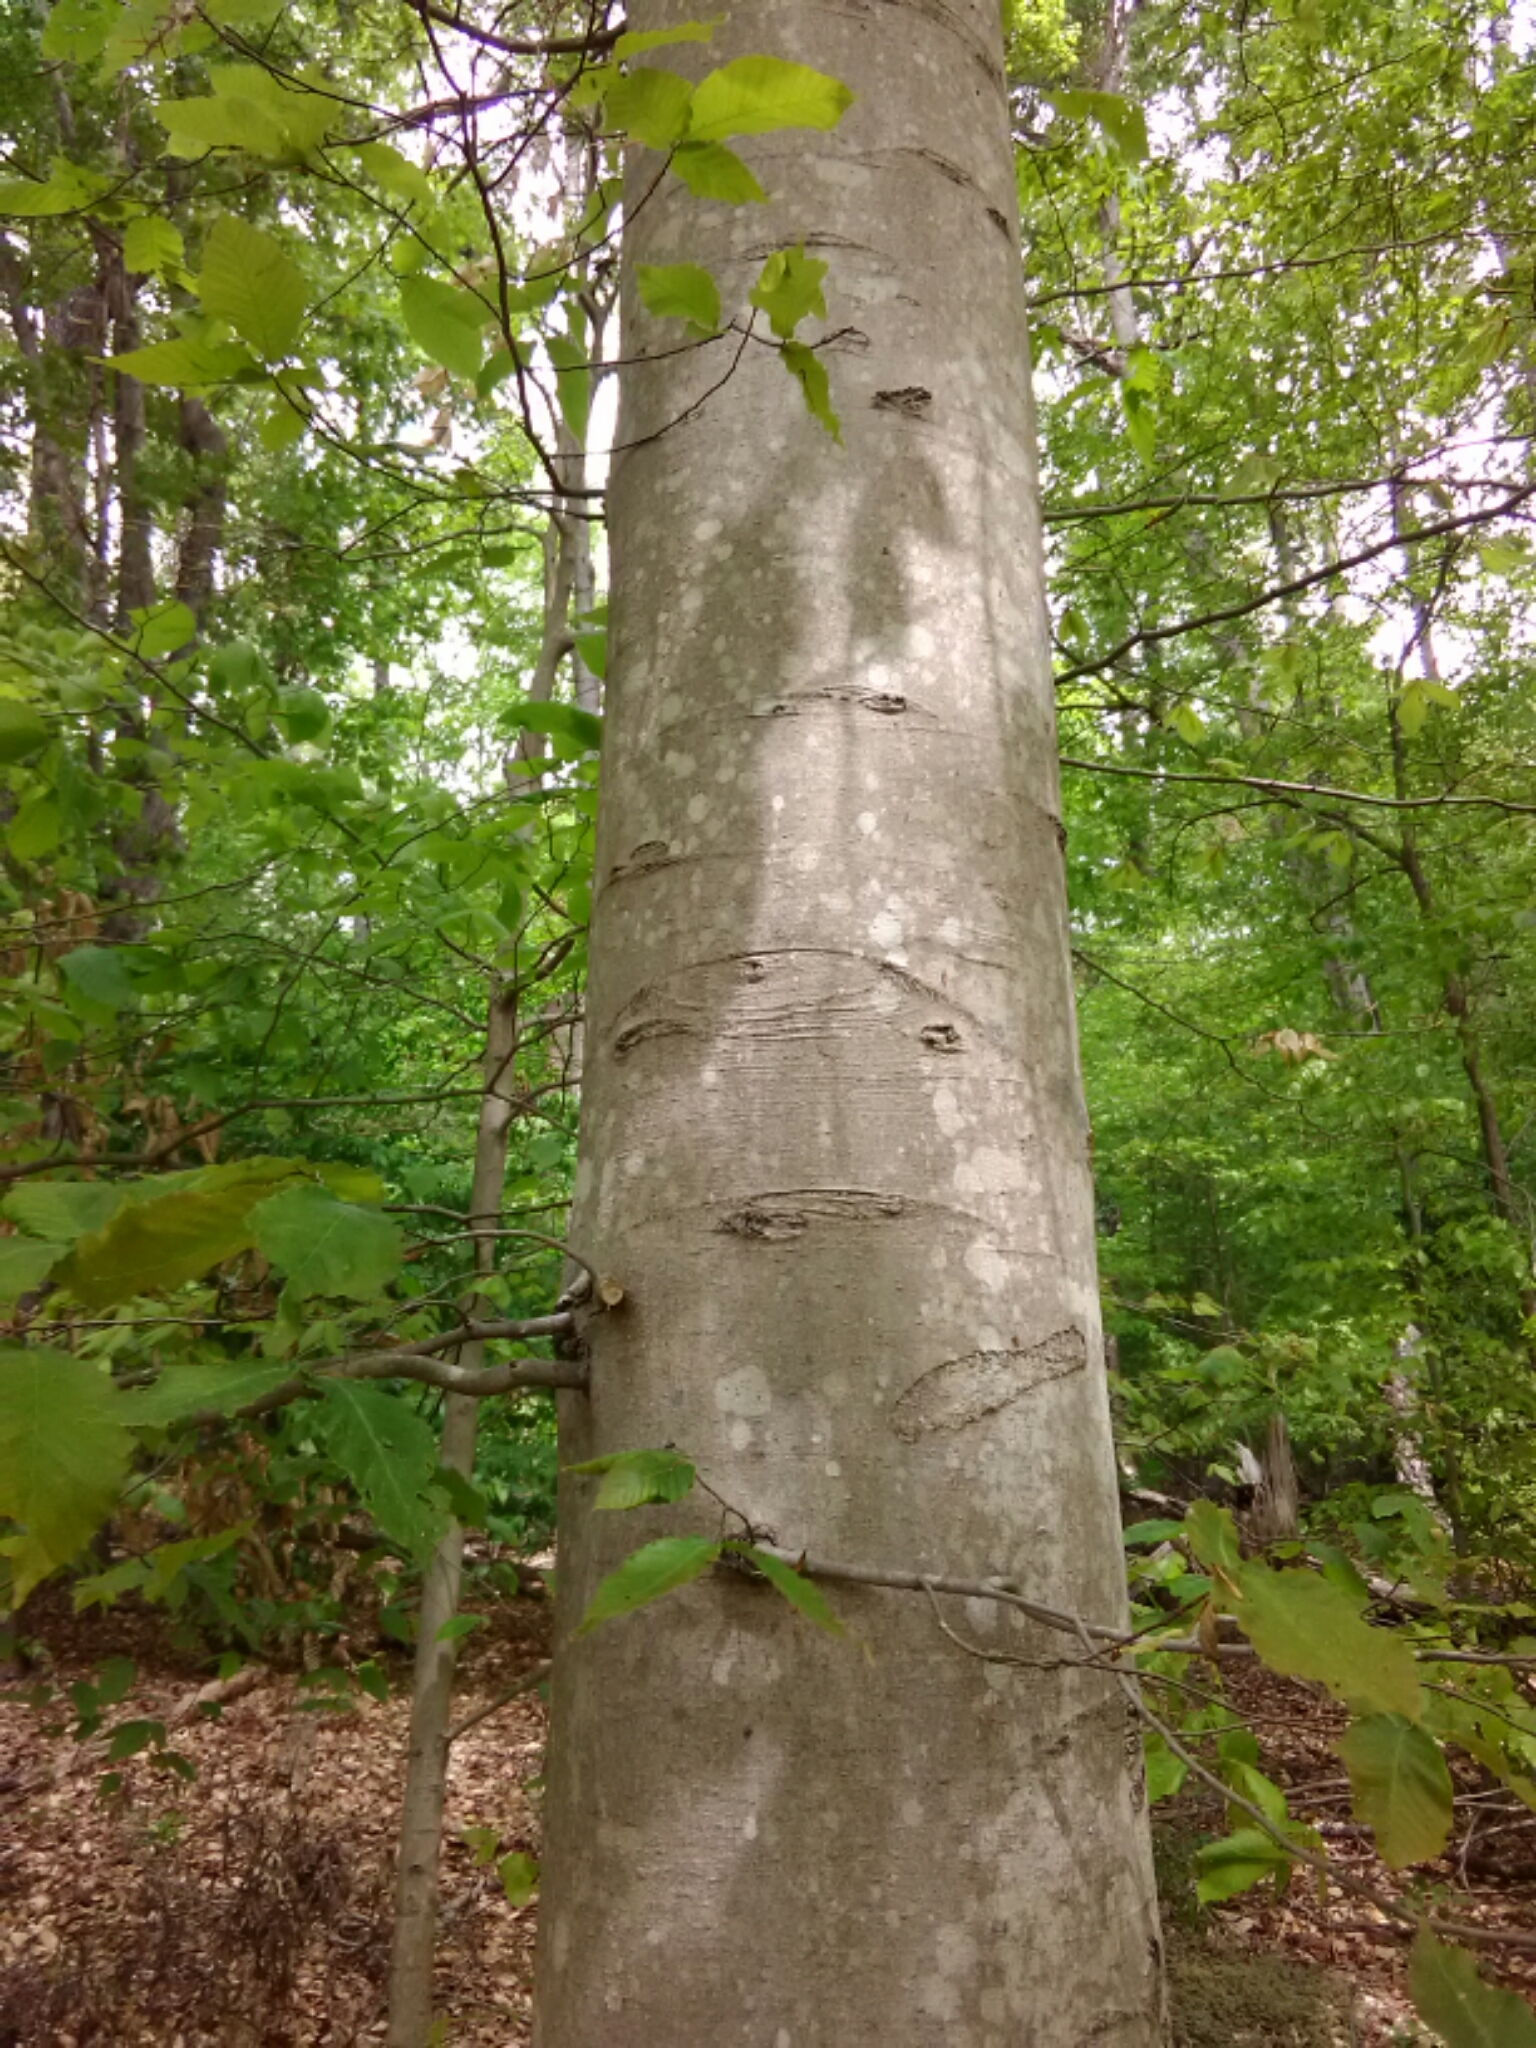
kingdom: Plantae
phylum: Tracheophyta
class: Magnoliopsida
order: Fagales
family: Fagaceae
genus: Fagus
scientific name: Fagus grandifolia
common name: American beech
